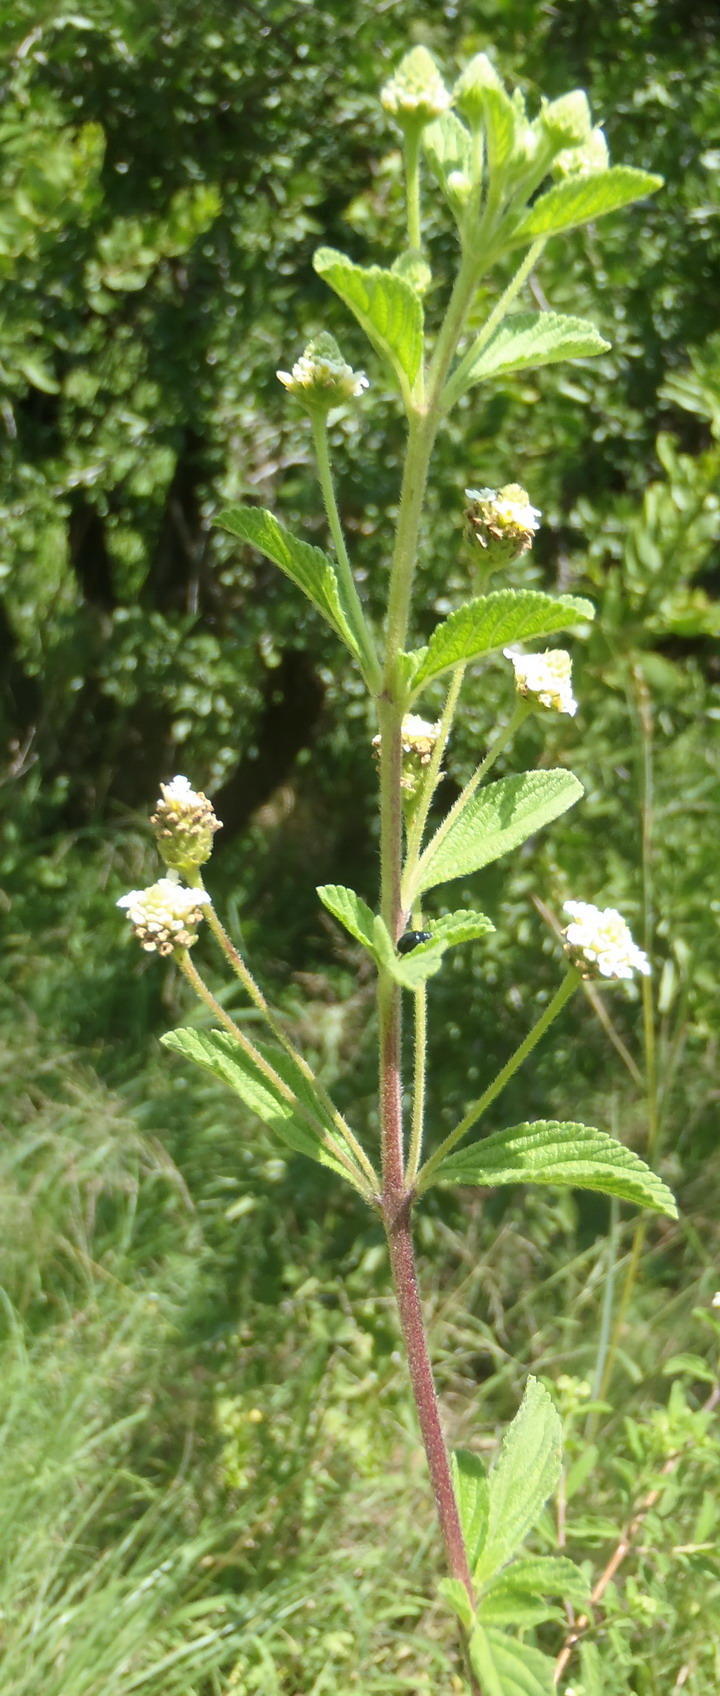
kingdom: Plantae
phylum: Tracheophyta
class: Magnoliopsida
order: Lamiales
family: Verbenaceae
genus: Lippia
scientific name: Lippia javanica
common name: Lemonbush
